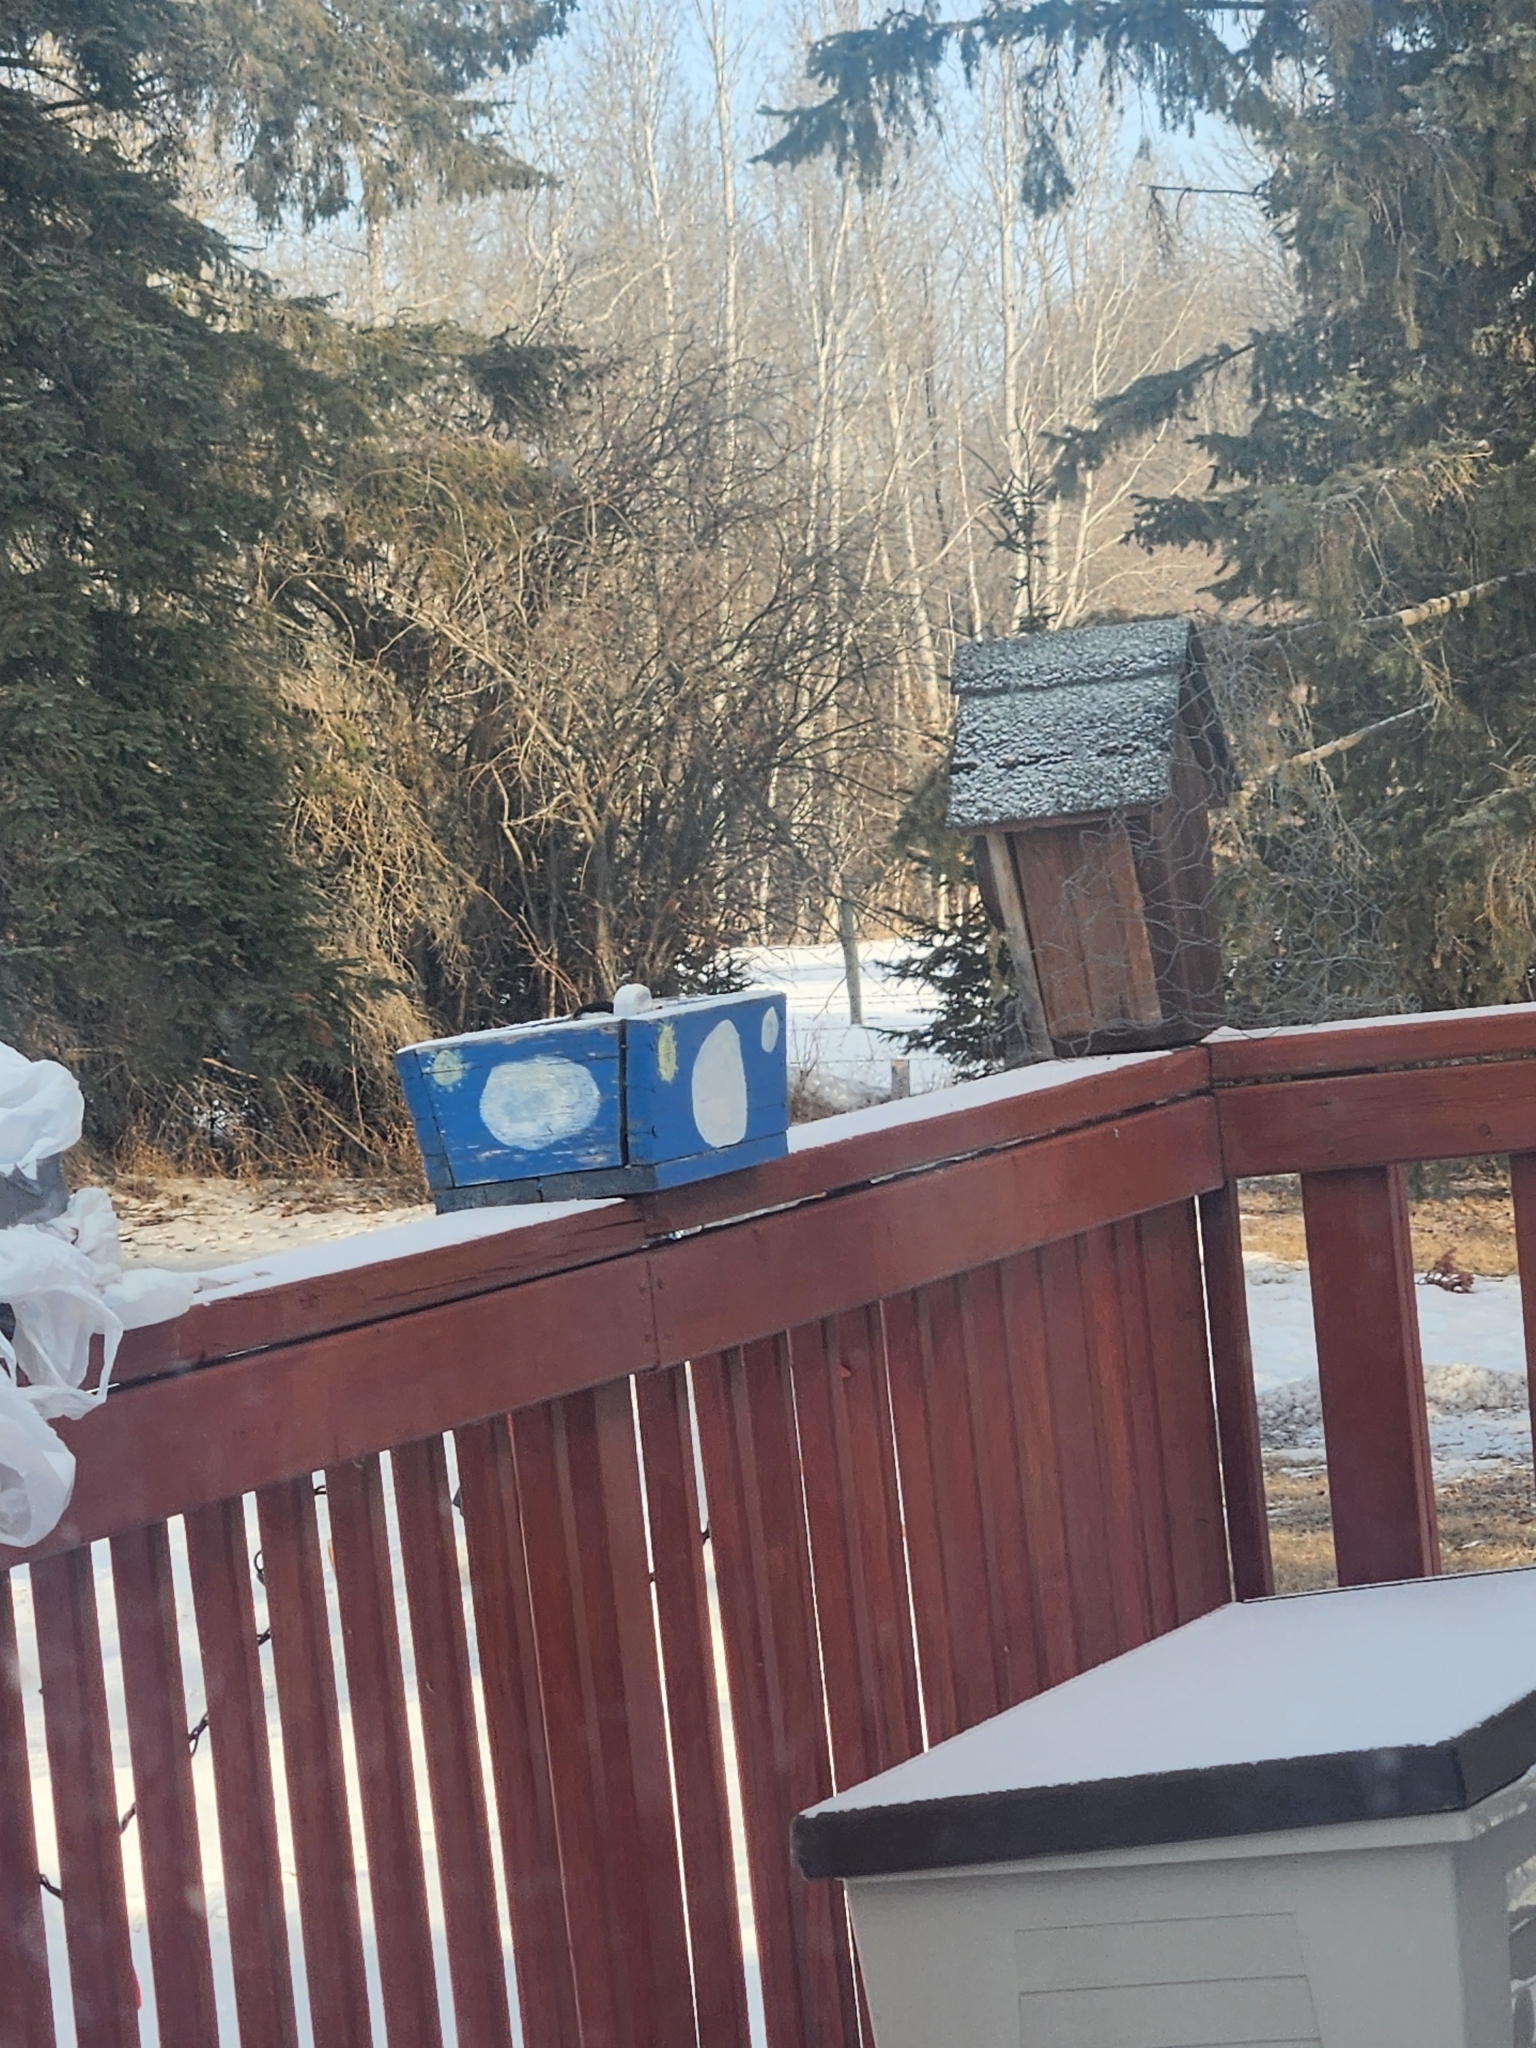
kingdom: Animalia
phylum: Chordata
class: Aves
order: Passeriformes
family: Paridae
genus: Poecile
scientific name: Poecile atricapillus
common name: Black-capped chickadee
